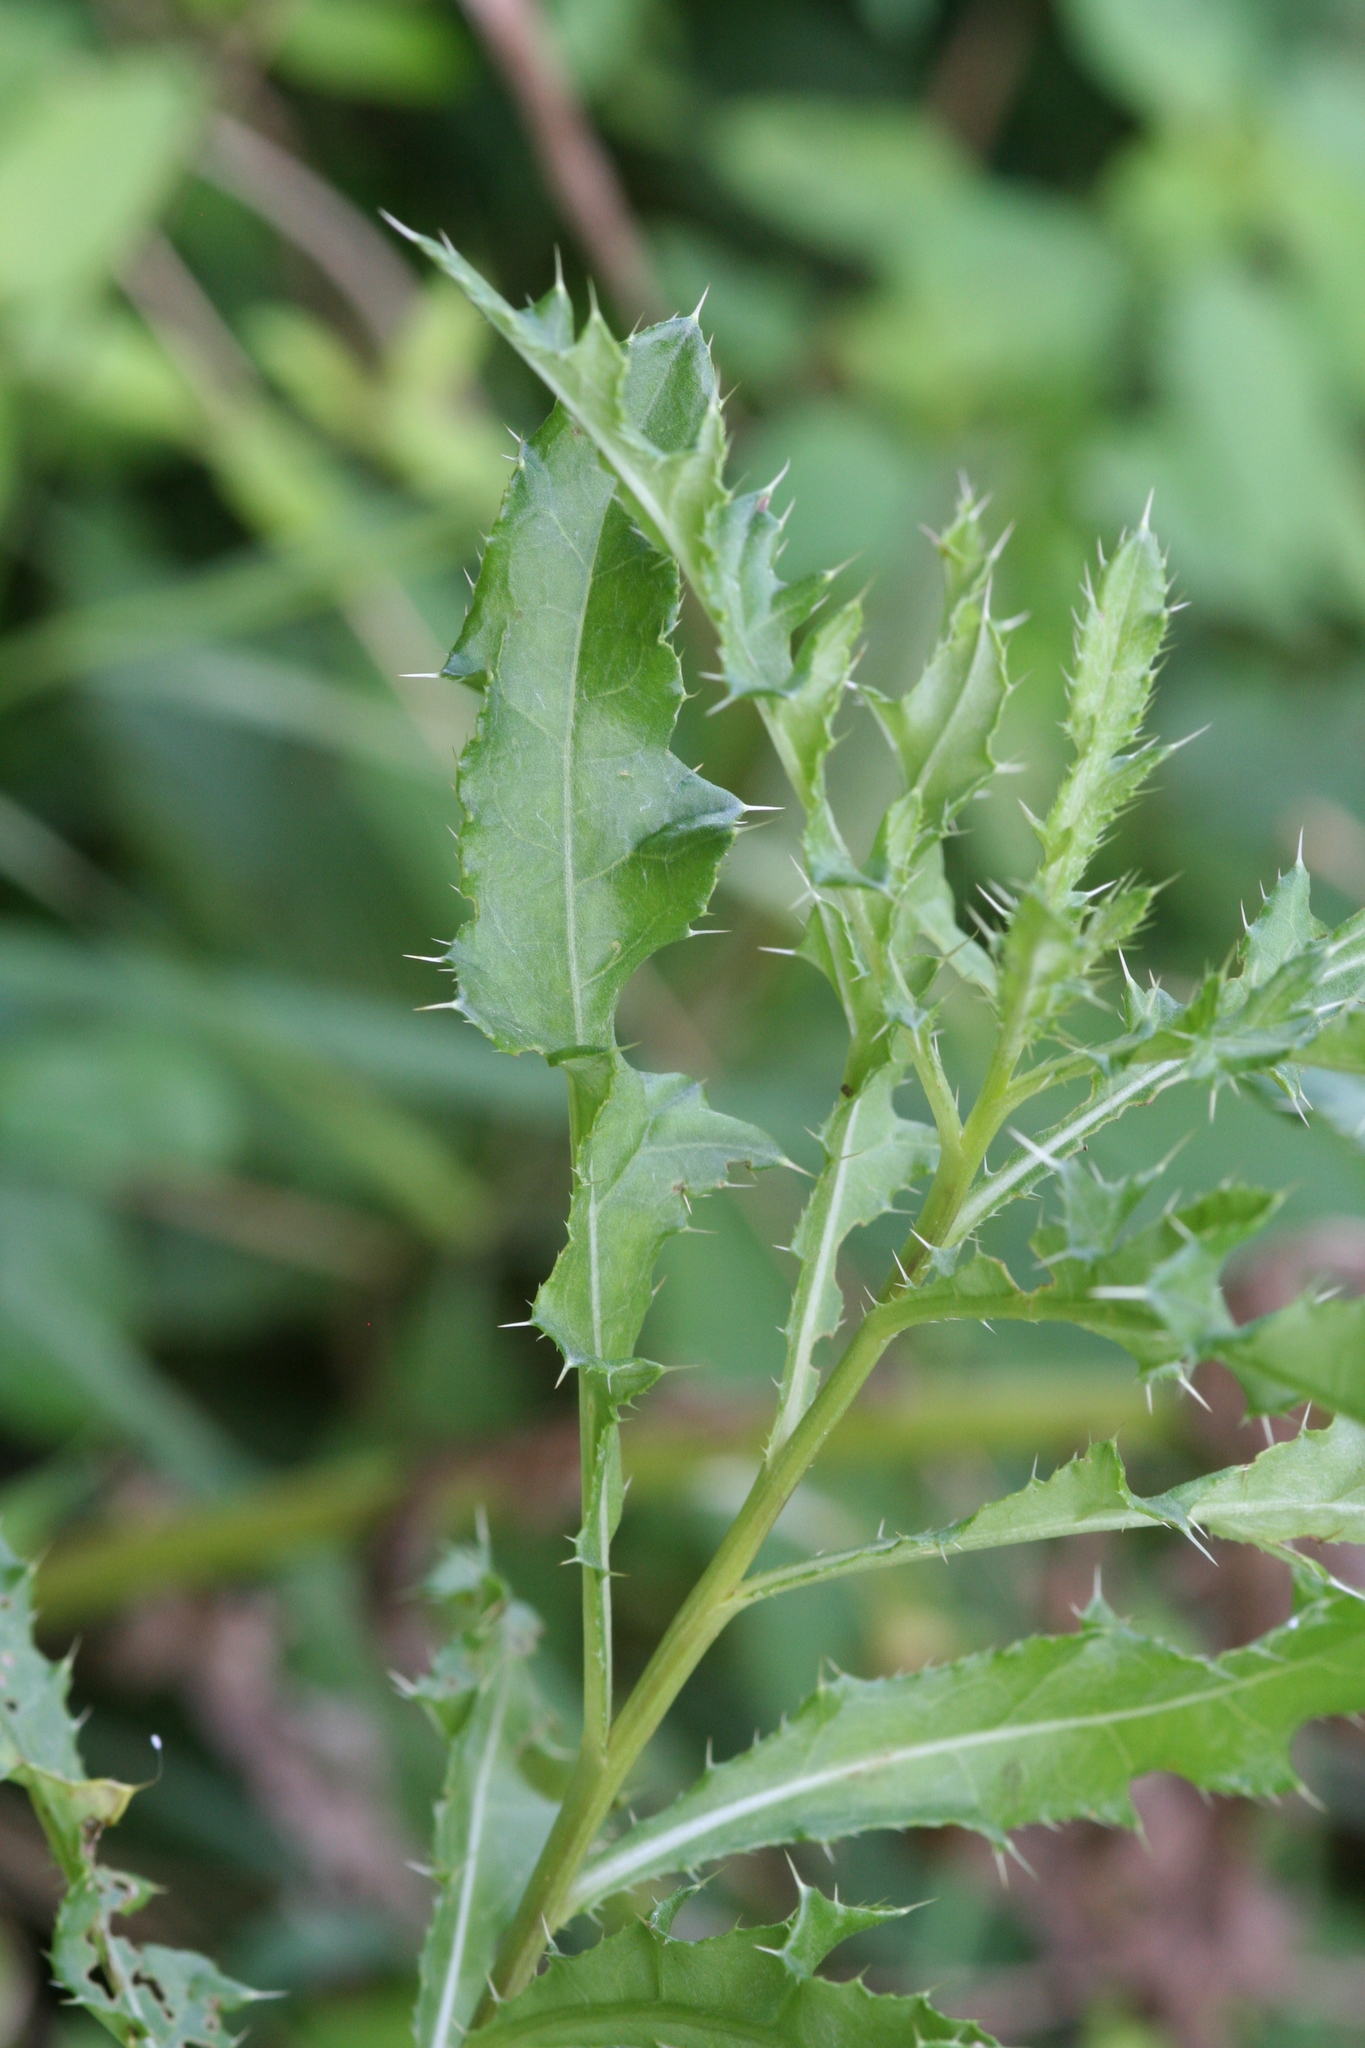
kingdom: Plantae
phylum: Tracheophyta
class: Magnoliopsida
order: Asterales
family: Asteraceae
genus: Cirsium
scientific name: Cirsium arvense
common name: Creeping thistle
